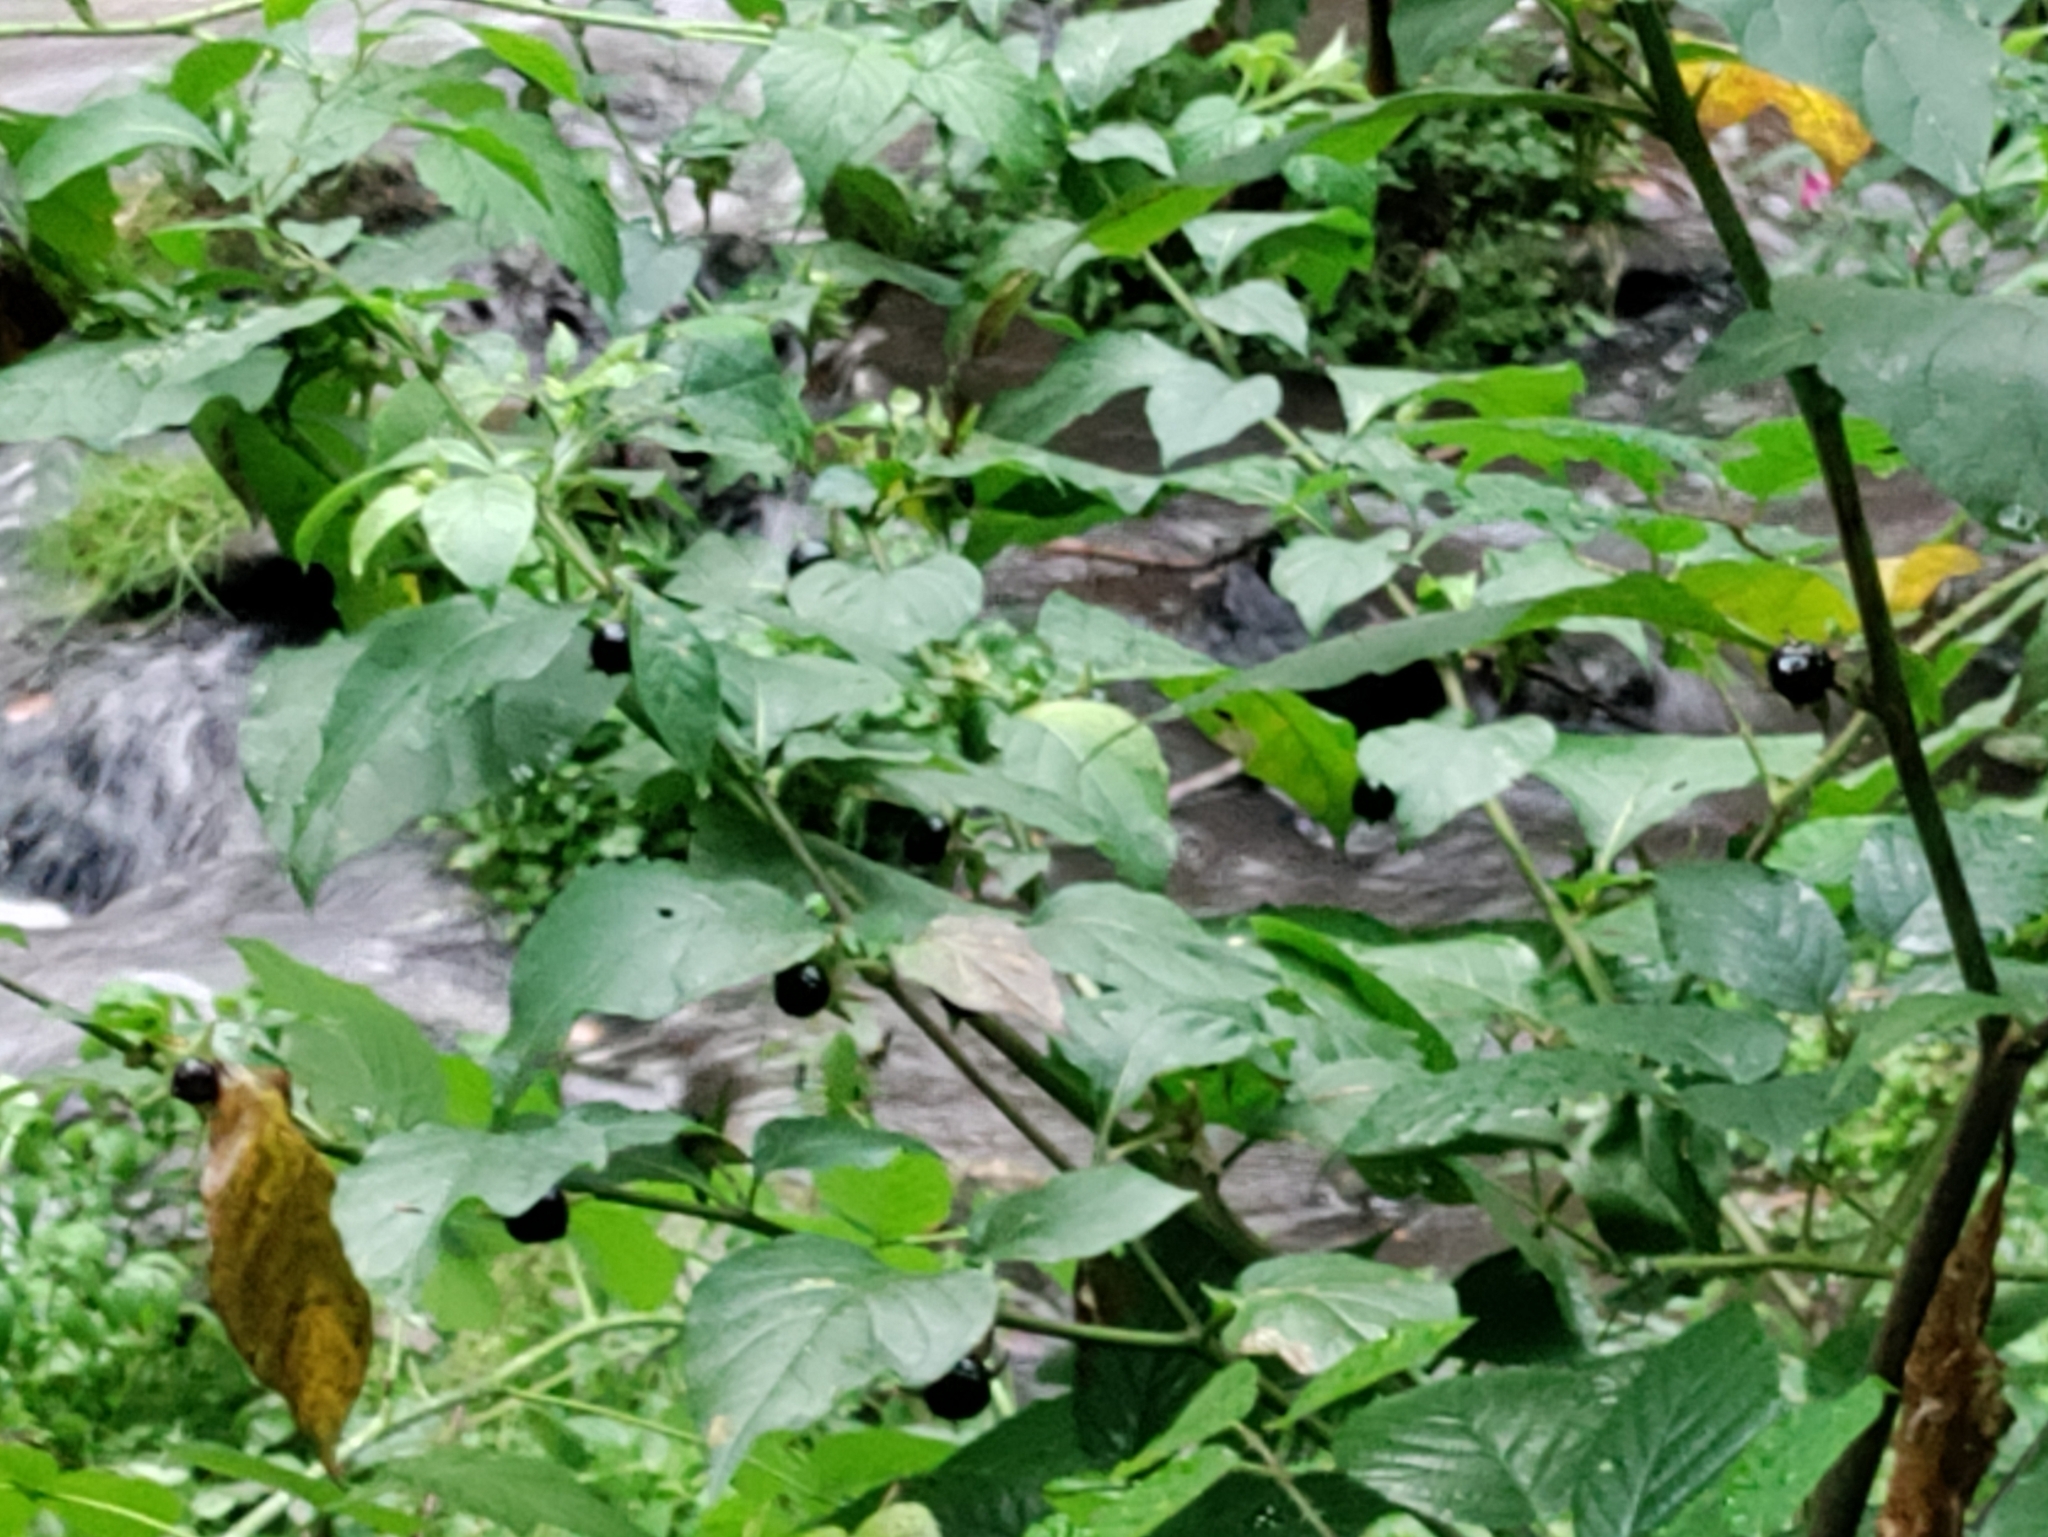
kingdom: Plantae
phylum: Tracheophyta
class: Magnoliopsida
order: Solanales
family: Solanaceae
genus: Atropa
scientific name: Atropa belladonna
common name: Deadly nightshade
